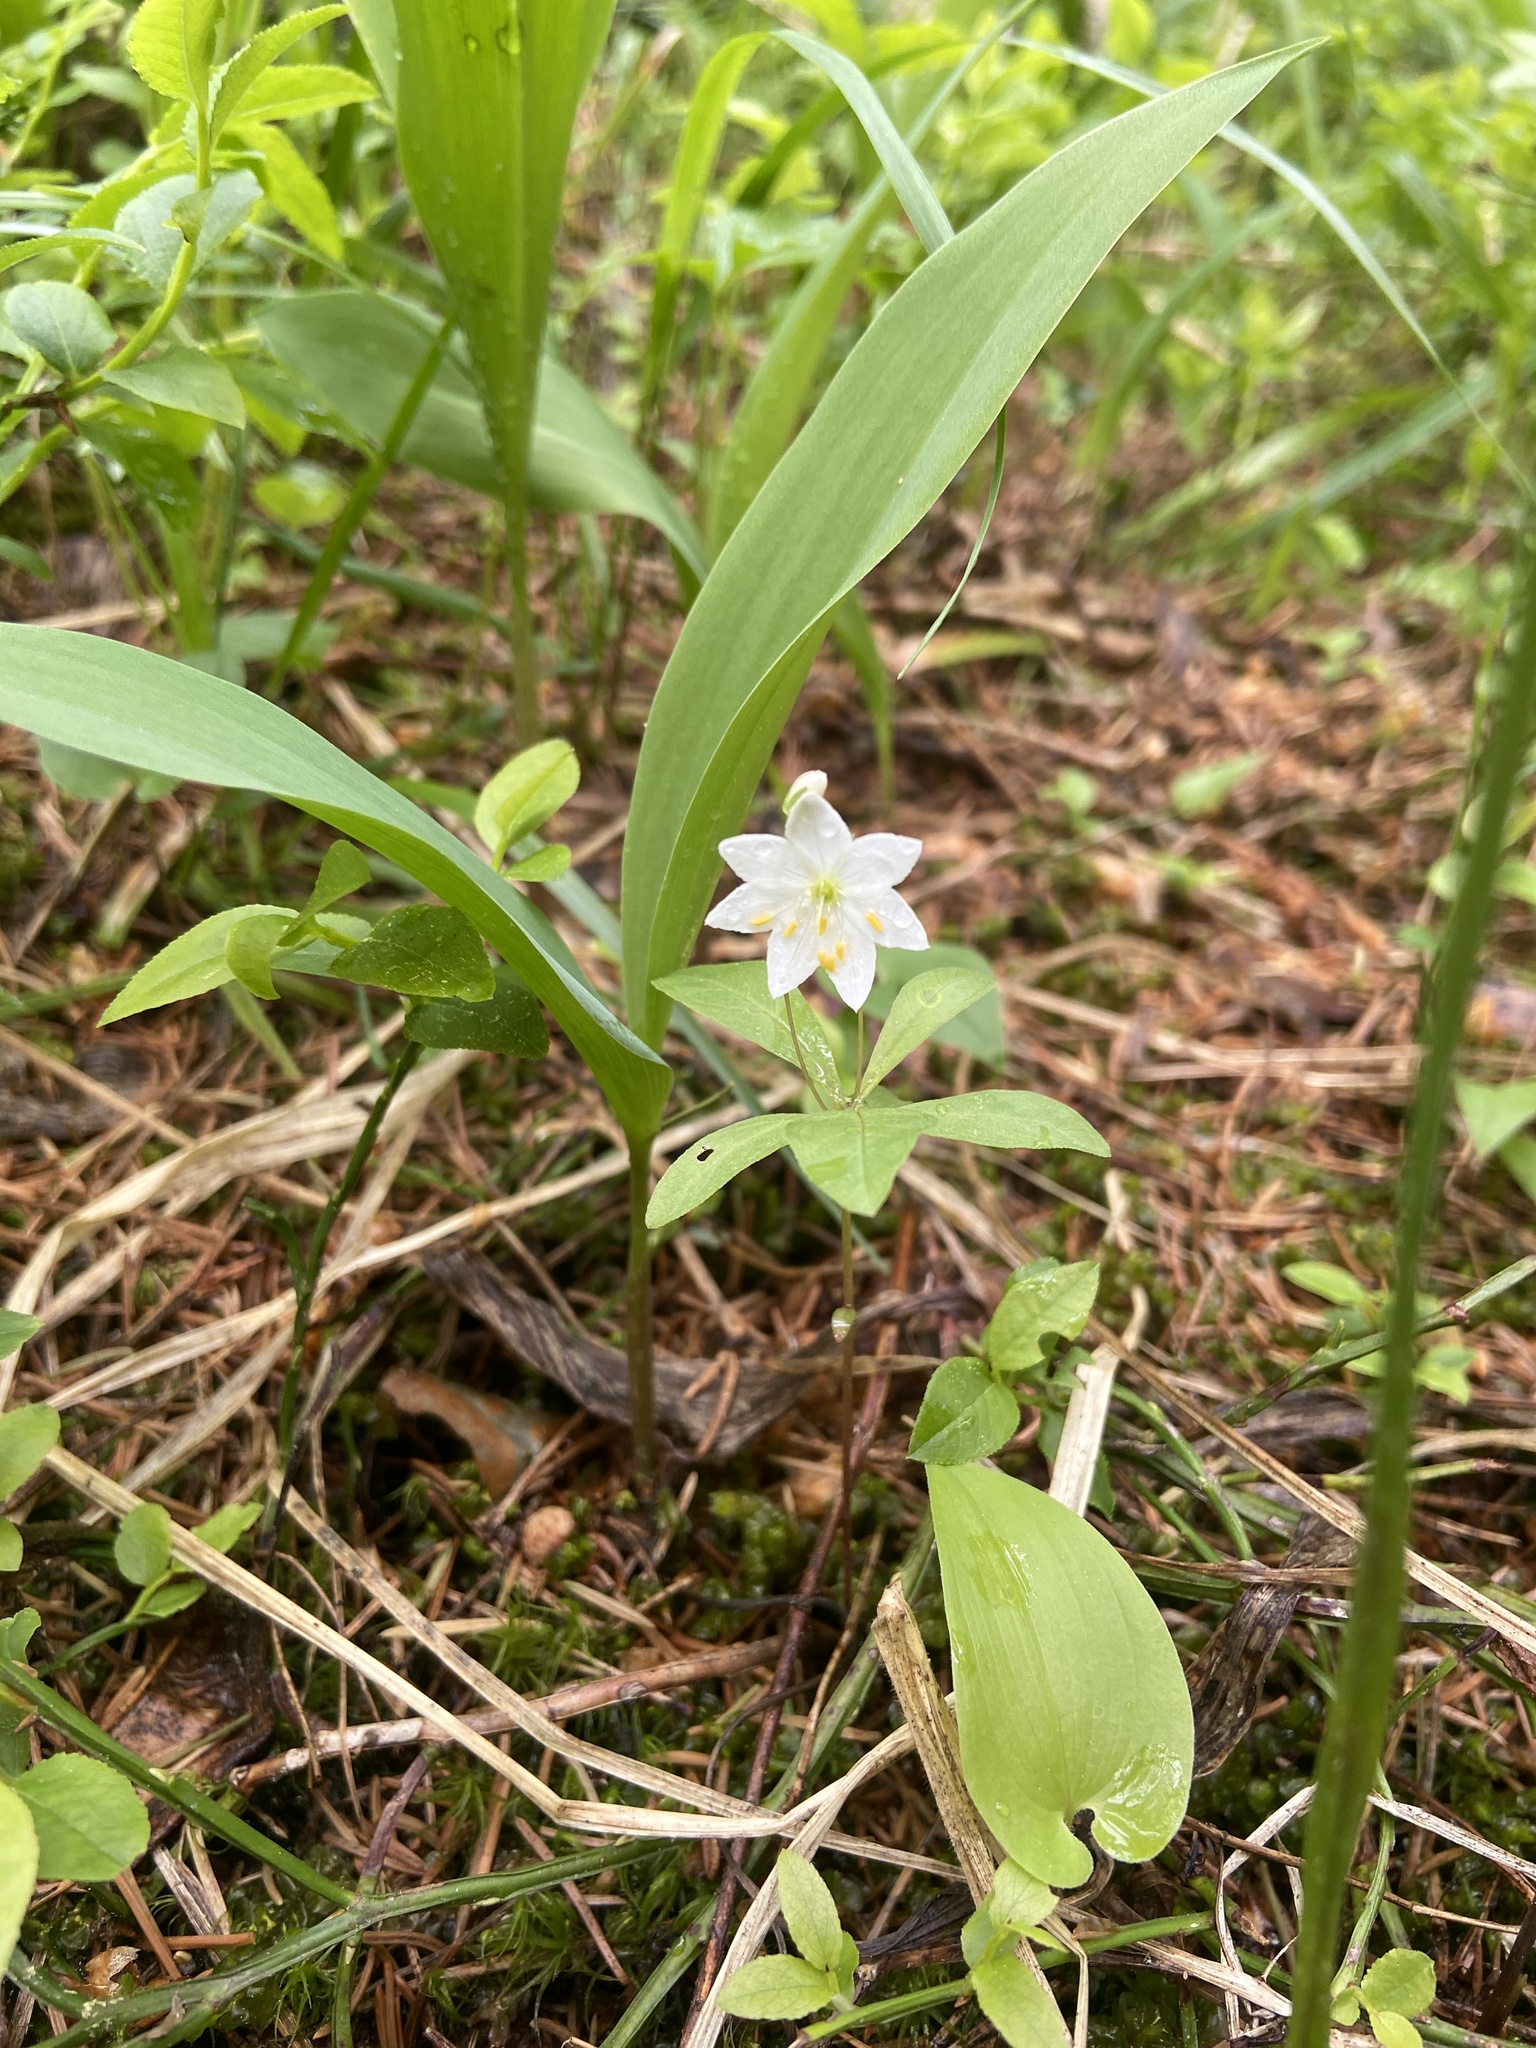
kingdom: Plantae
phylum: Tracheophyta
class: Magnoliopsida
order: Ericales
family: Primulaceae
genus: Lysimachia
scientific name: Lysimachia europaea
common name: Arctic starflower
